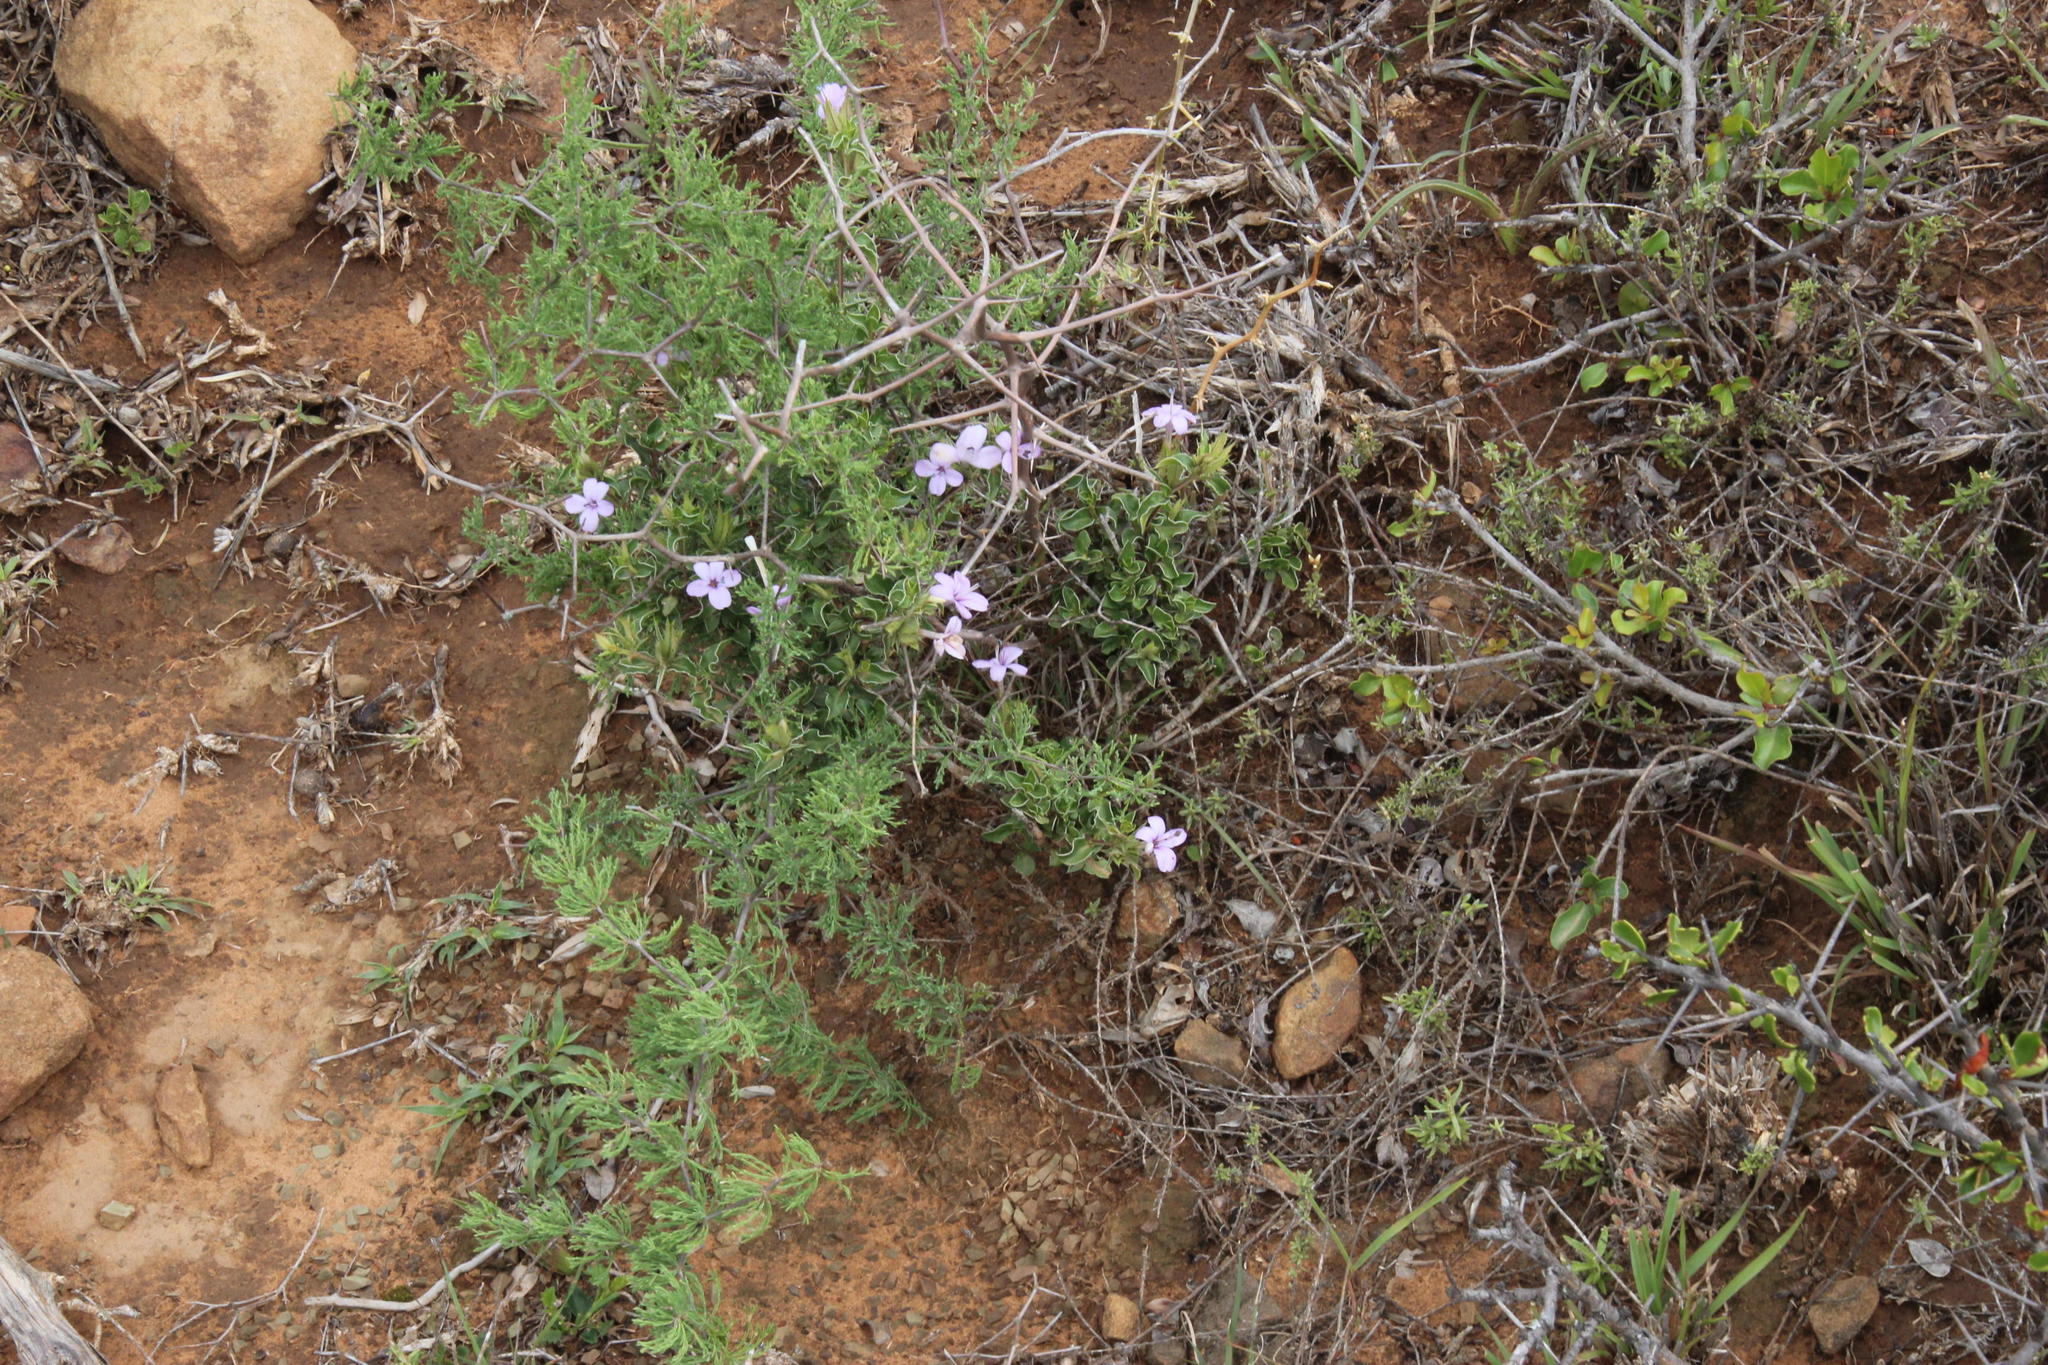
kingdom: Plantae
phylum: Tracheophyta
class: Magnoliopsida
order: Lamiales
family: Acanthaceae
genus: Barleria
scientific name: Barleria irritans
